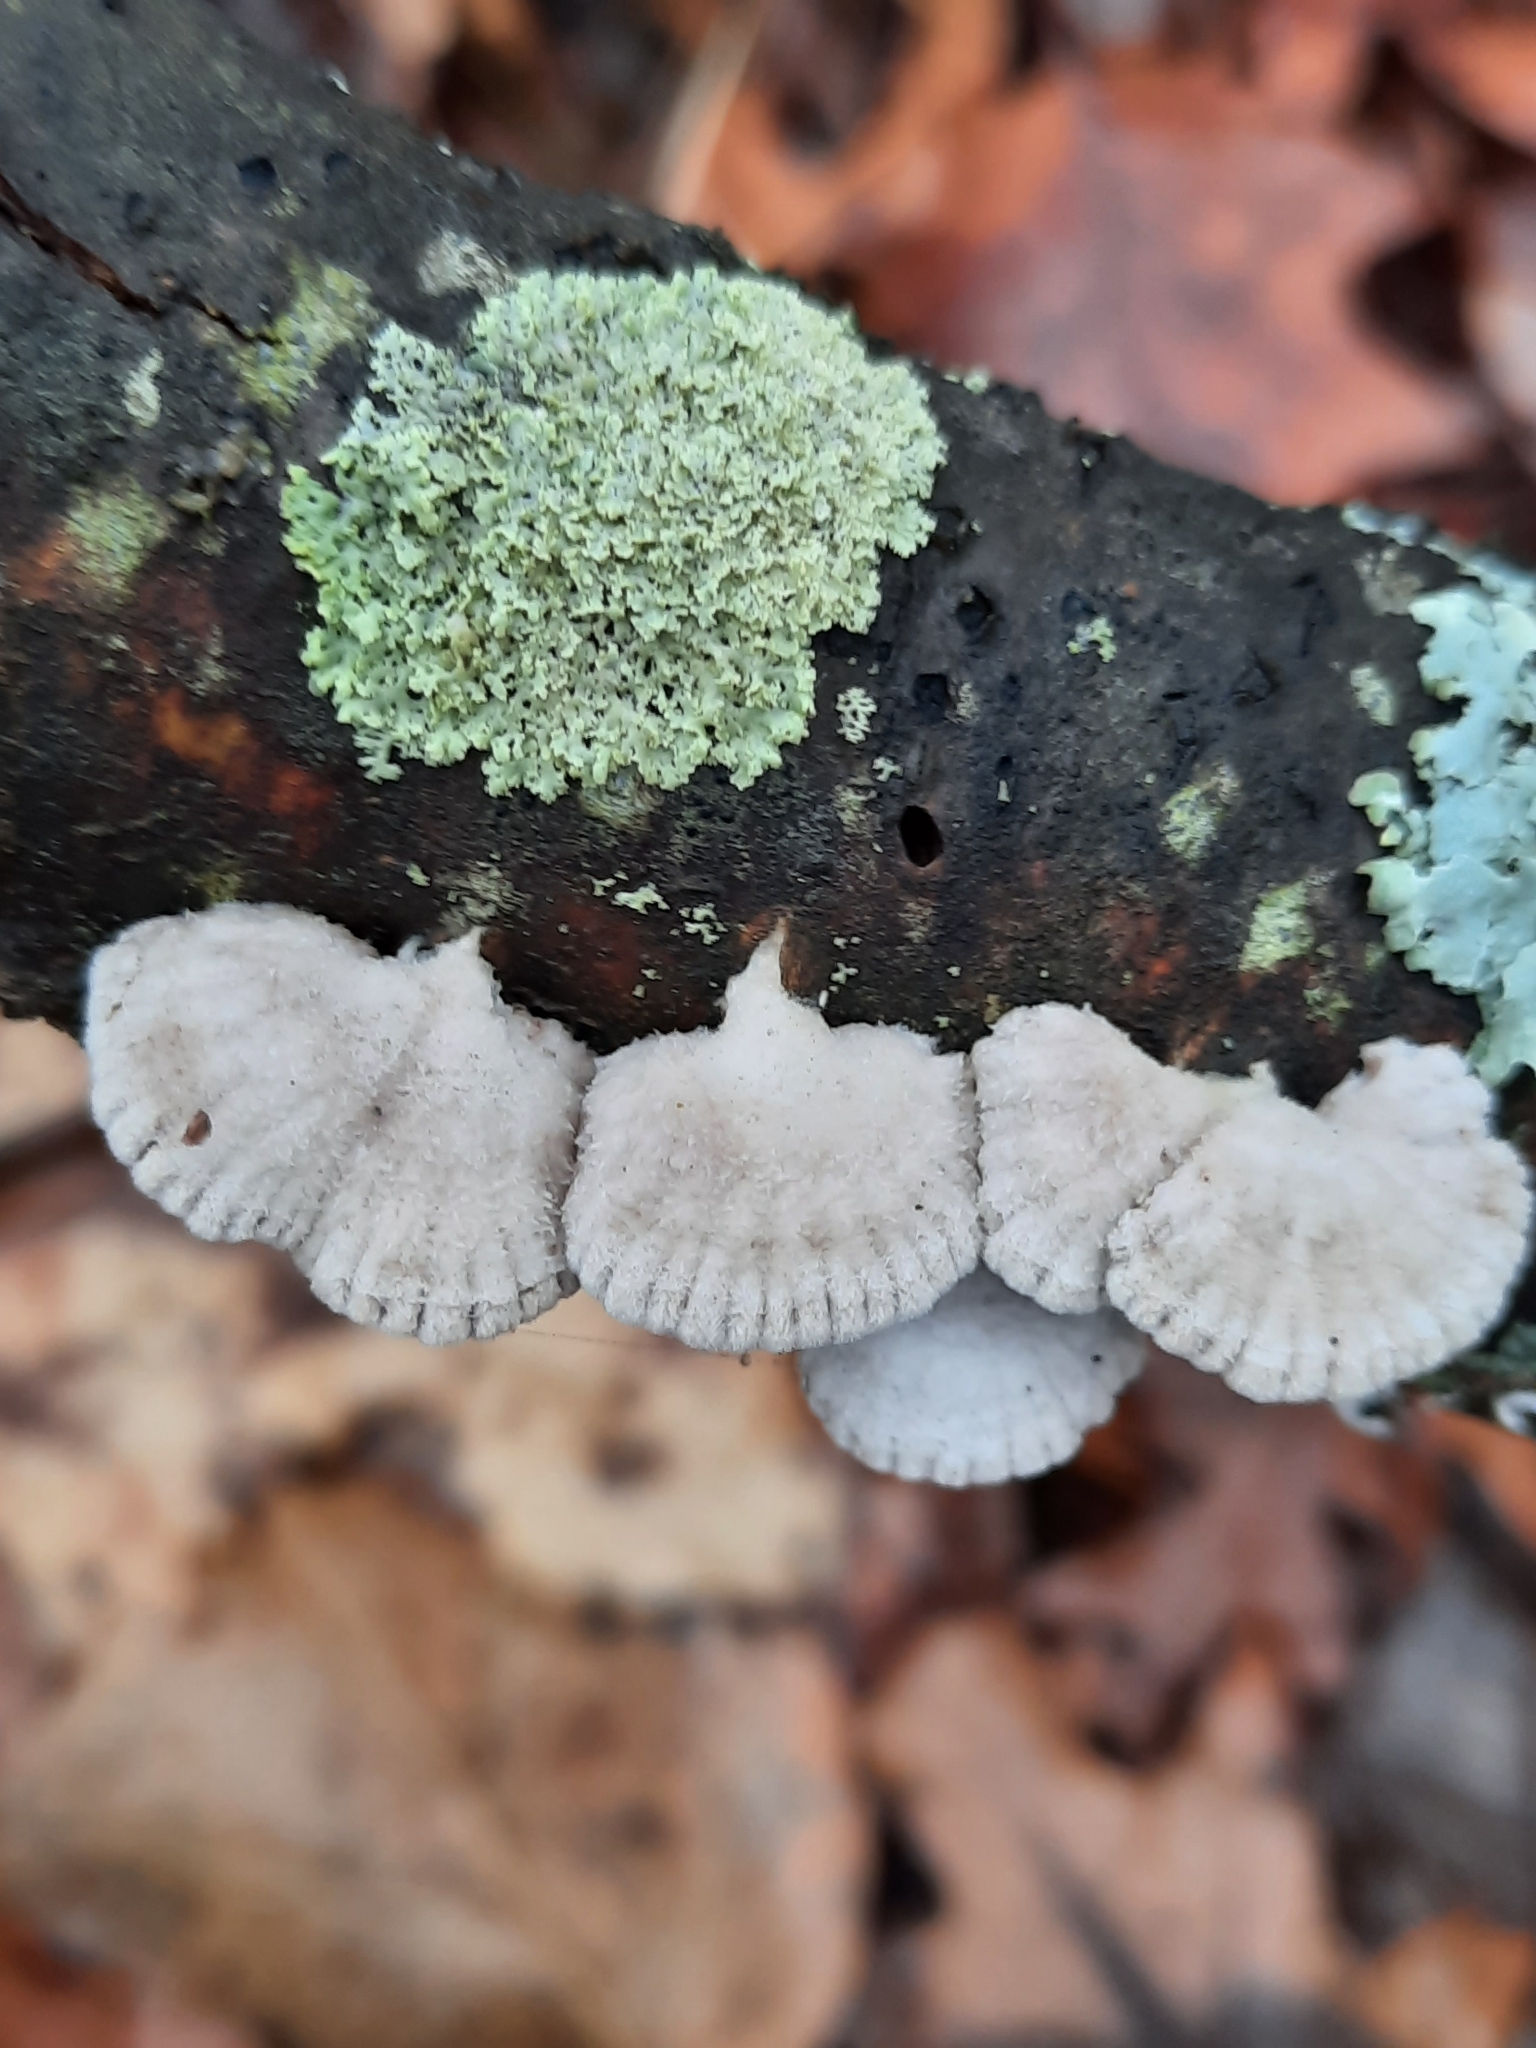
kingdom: Fungi
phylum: Basidiomycota
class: Agaricomycetes
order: Agaricales
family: Schizophyllaceae
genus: Schizophyllum
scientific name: Schizophyllum commune
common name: Common porecrust
